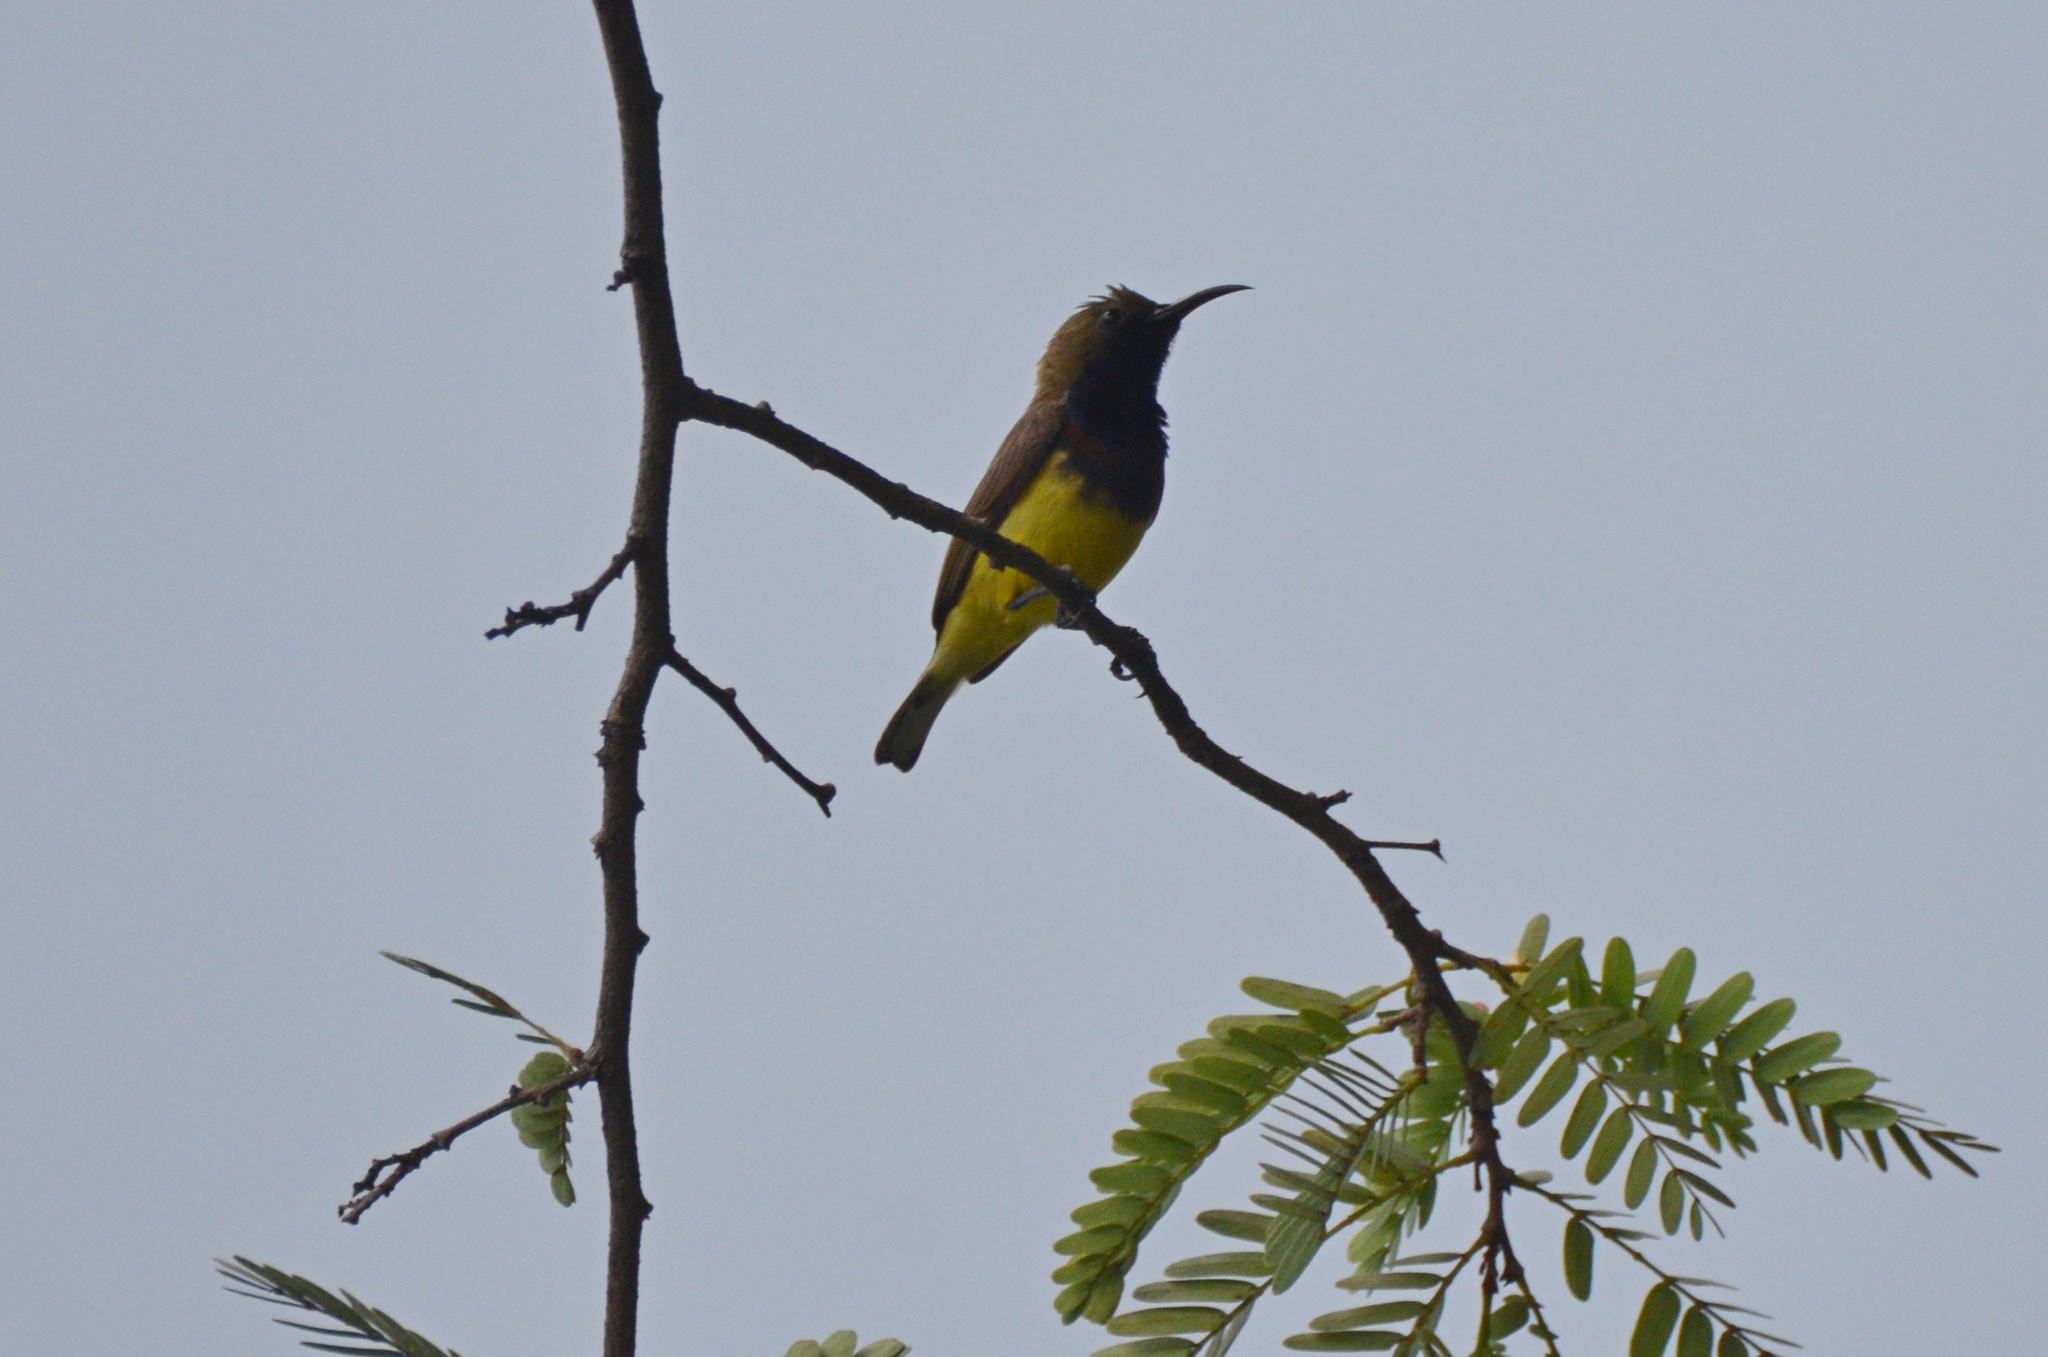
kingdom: Animalia
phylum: Chordata
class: Aves
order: Passeriformes
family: Nectariniidae
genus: Cinnyris
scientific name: Cinnyris
